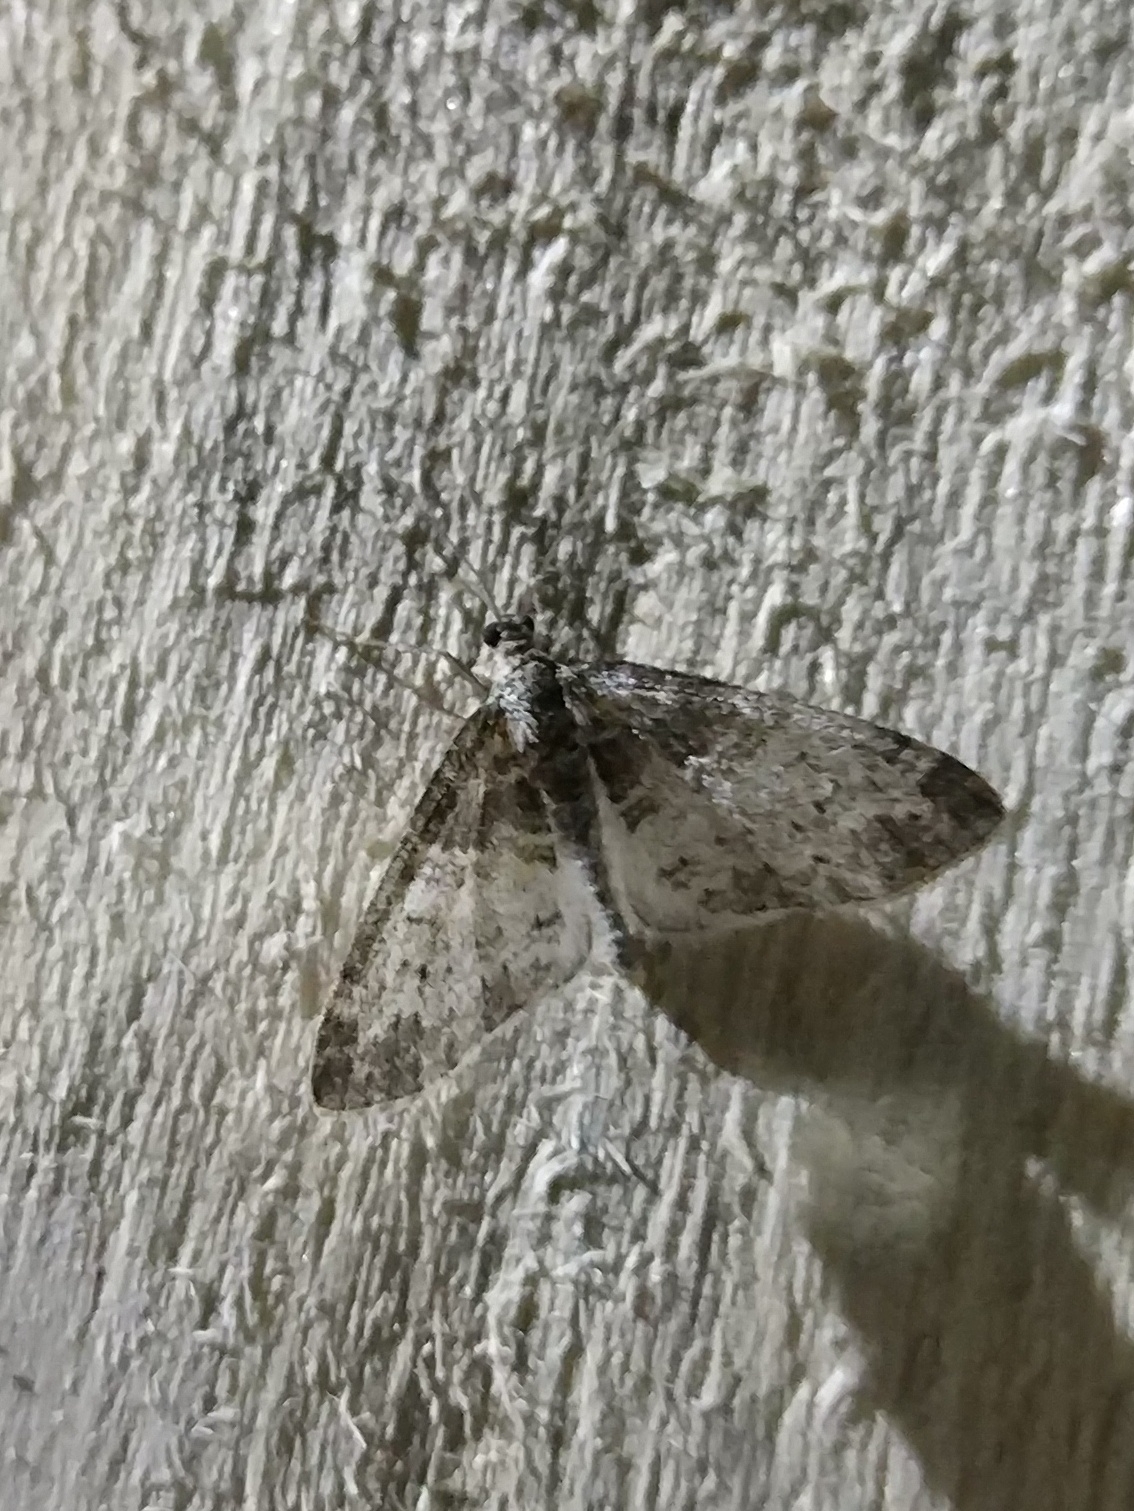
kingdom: Animalia
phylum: Arthropoda
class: Insecta
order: Lepidoptera
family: Geometridae
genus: Lobophora
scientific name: Lobophora halterata
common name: Seraphim
